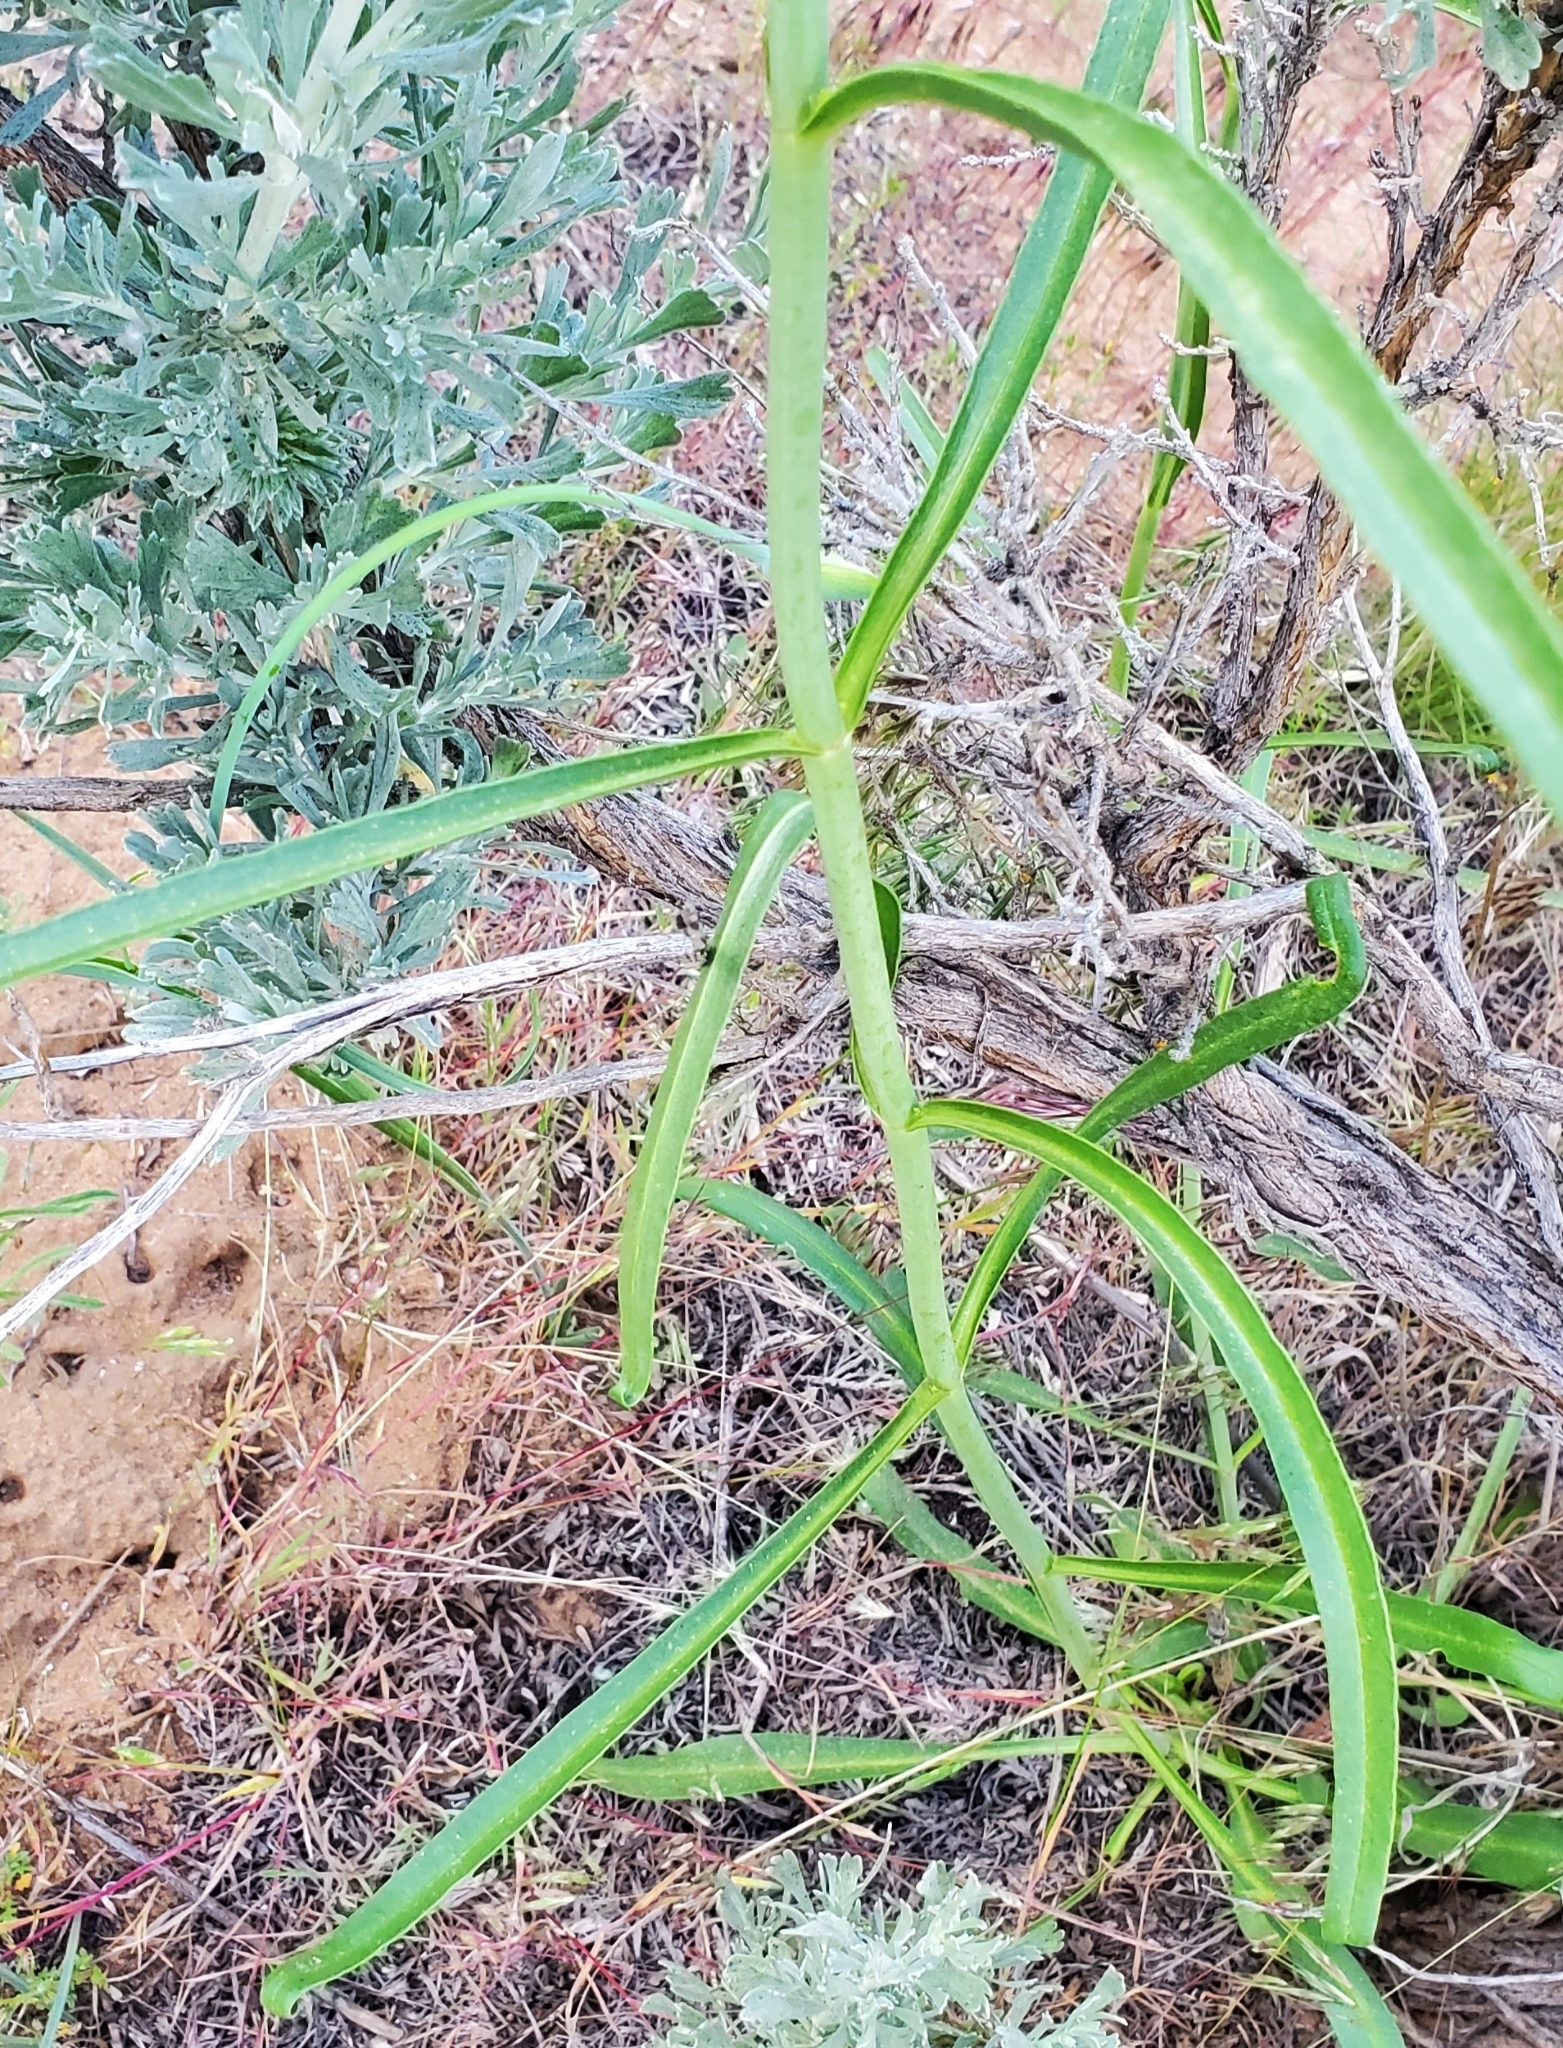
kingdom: Plantae
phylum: Tracheophyta
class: Magnoliopsida
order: Lamiales
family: Plantaginaceae
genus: Penstemon
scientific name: Penstemon comarrhenus
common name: Dusty penstemon
